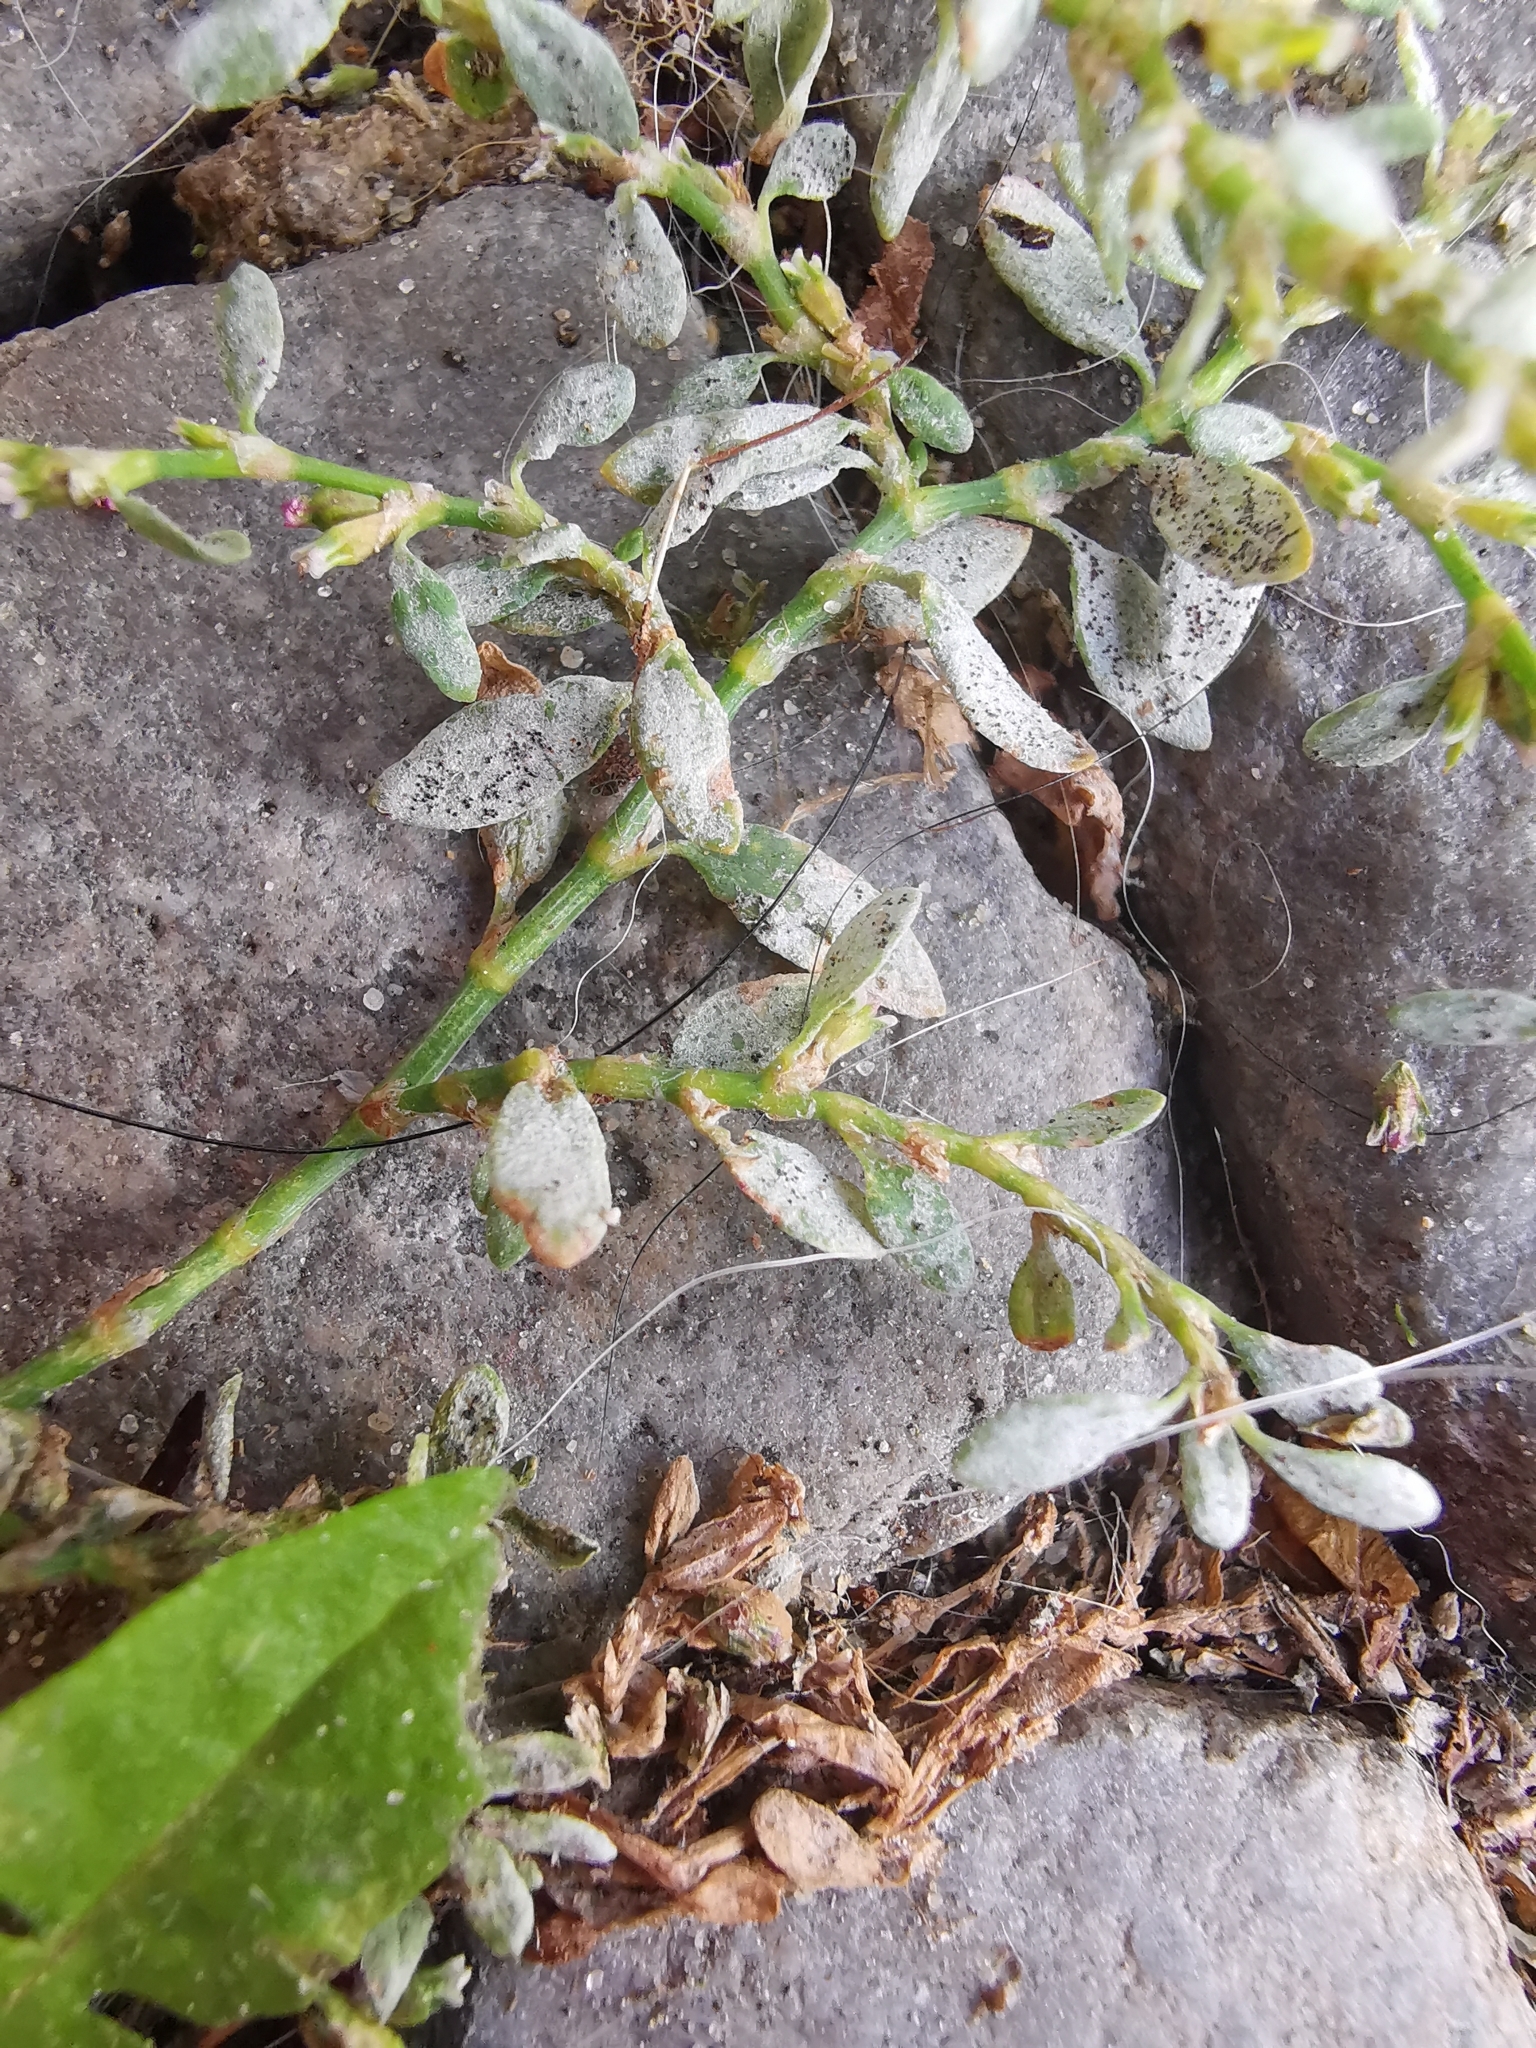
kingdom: Fungi
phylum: Ascomycota
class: Leotiomycetes
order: Helotiales
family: Erysiphaceae
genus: Erysiphe
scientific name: Erysiphe polygoni
